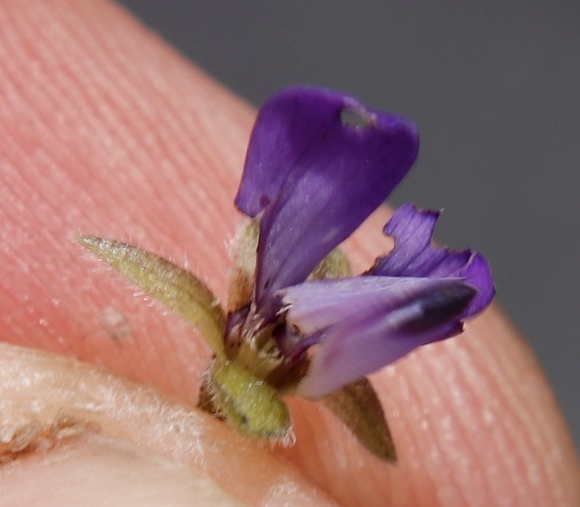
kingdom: Plantae
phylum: Tracheophyta
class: Magnoliopsida
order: Fabales
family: Fabaceae
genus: Psoralea
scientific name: Psoralea asarina
